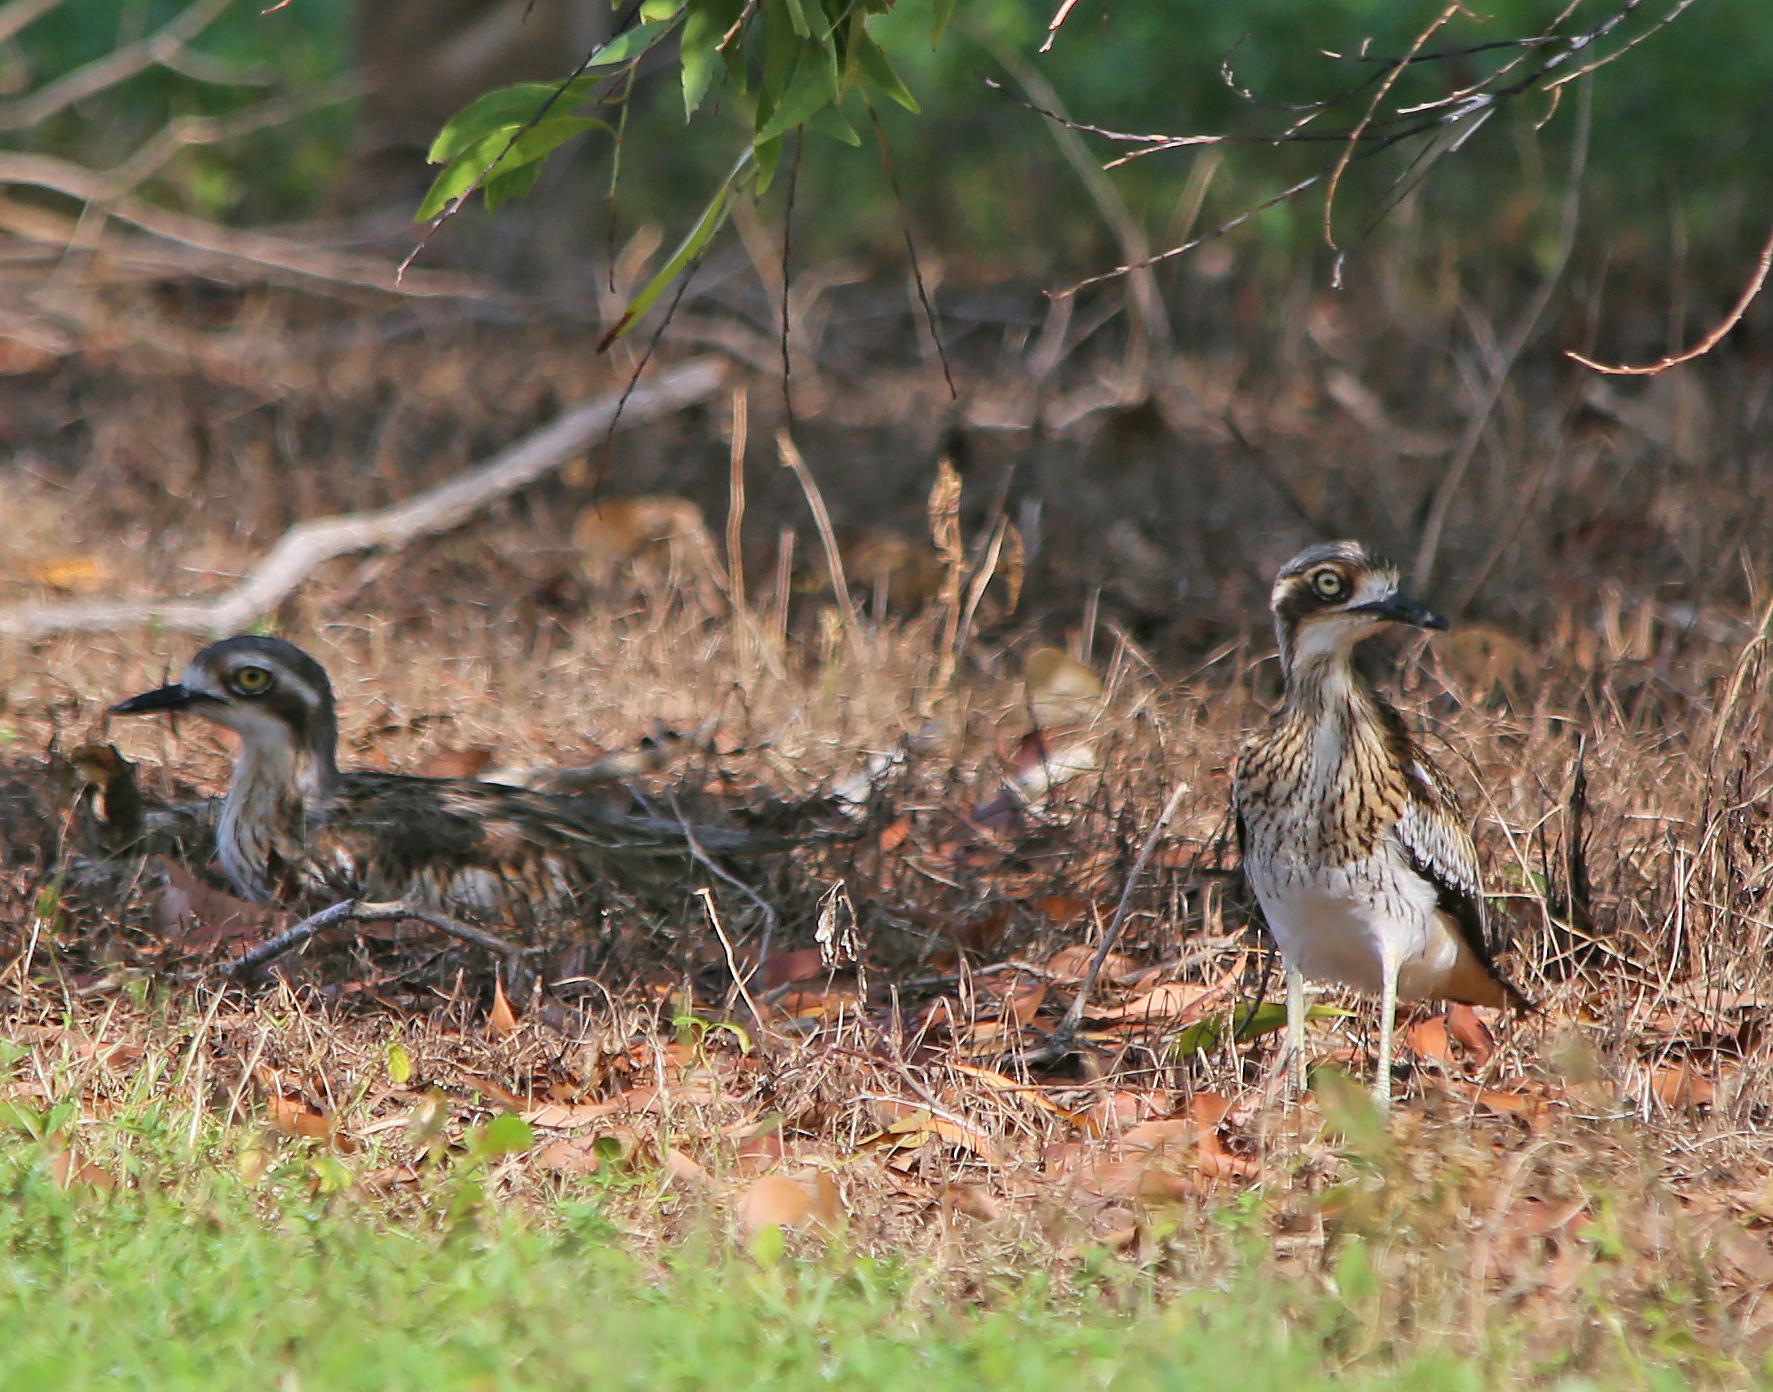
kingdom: Animalia
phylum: Chordata
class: Aves
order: Charadriiformes
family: Burhinidae
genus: Burhinus
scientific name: Burhinus grallarius
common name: Bush stone-curlew
